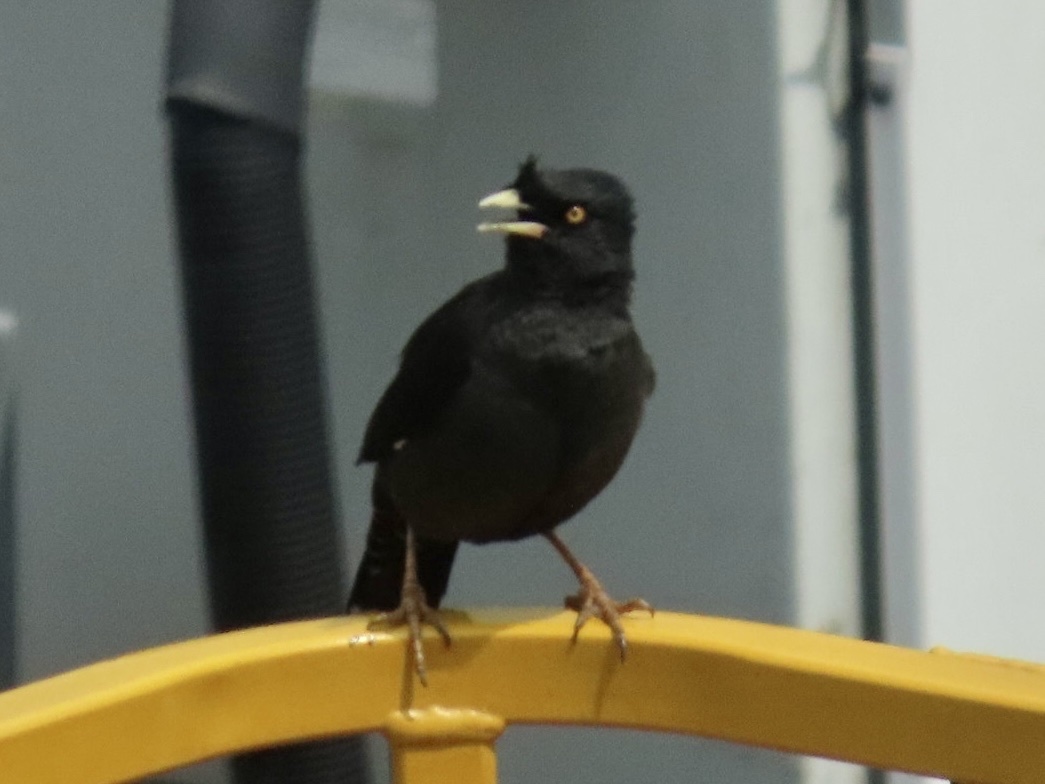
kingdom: Animalia
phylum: Chordata
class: Aves
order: Passeriformes
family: Sturnidae
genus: Acridotheres
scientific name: Acridotheres cristatellus
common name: Crested myna
